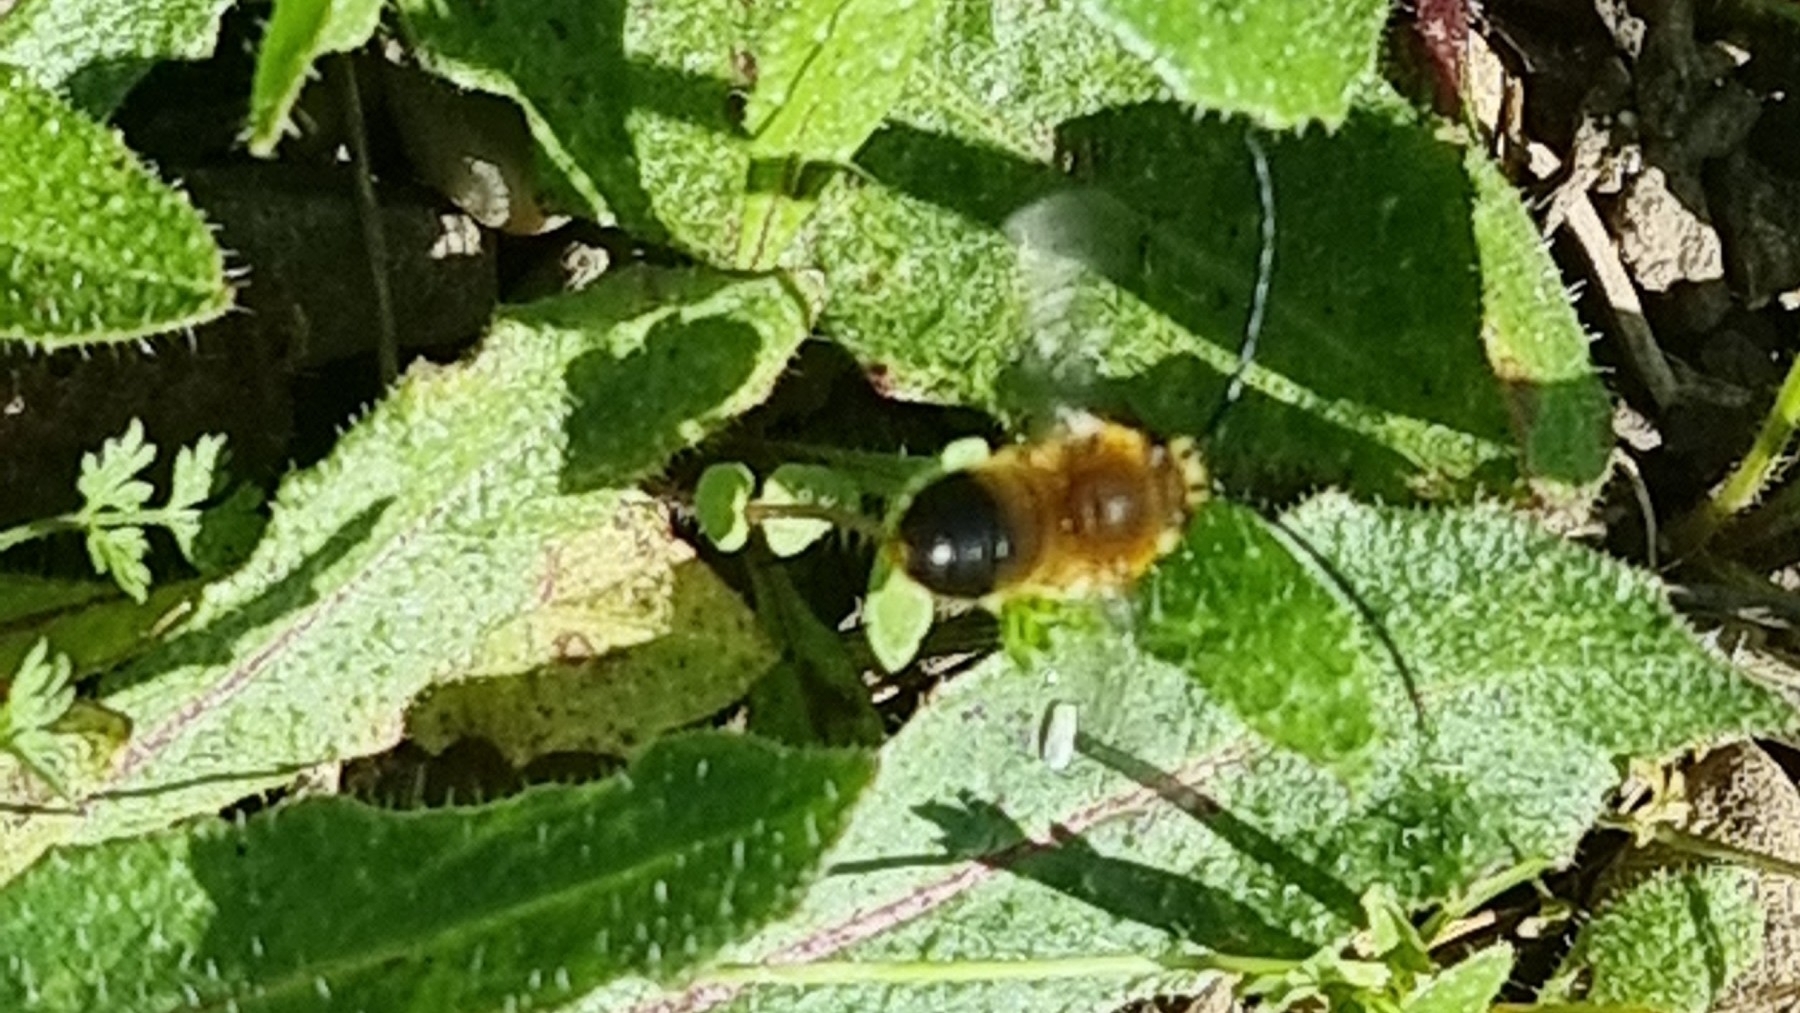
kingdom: Animalia
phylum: Arthropoda
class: Insecta
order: Hymenoptera
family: Apidae
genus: Eucera
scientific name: Eucera nigrescens
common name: Tuberculate long-horned bee
